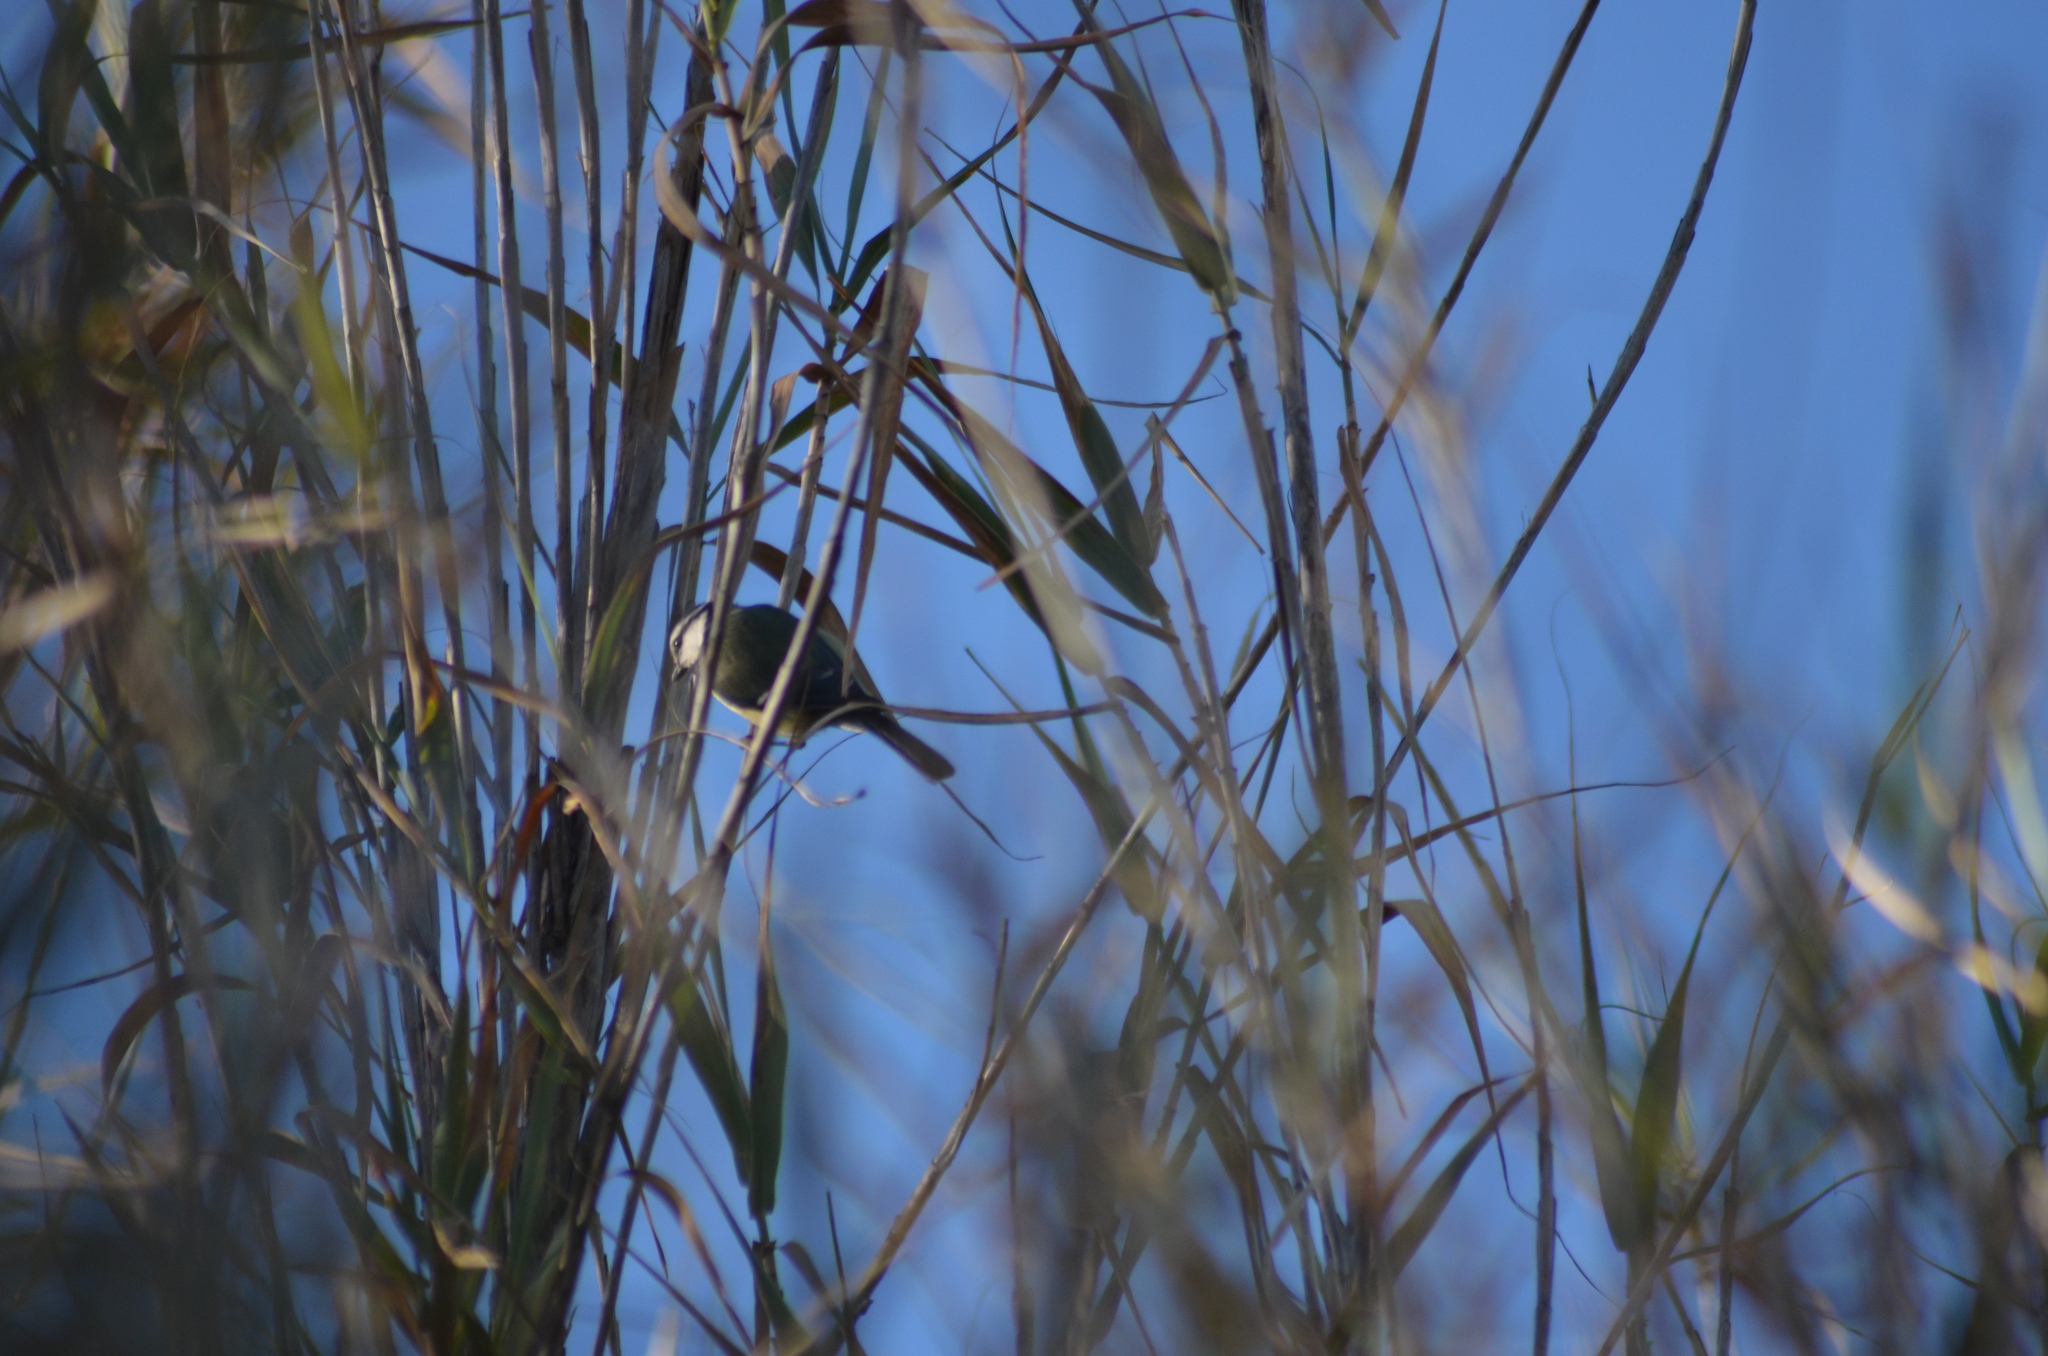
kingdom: Animalia
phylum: Chordata
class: Aves
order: Passeriformes
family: Paridae
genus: Cyanistes
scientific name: Cyanistes caeruleus
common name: Eurasian blue tit
